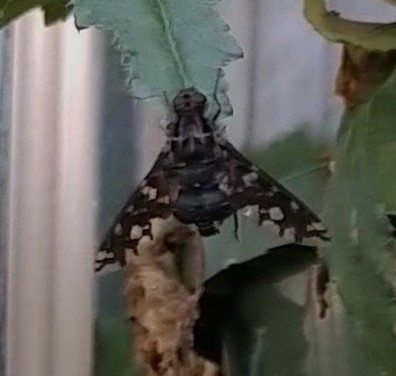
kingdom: Animalia
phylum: Arthropoda
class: Insecta
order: Diptera
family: Bombyliidae
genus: Xenox
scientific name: Xenox tigrinus
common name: Tiger bee fly
